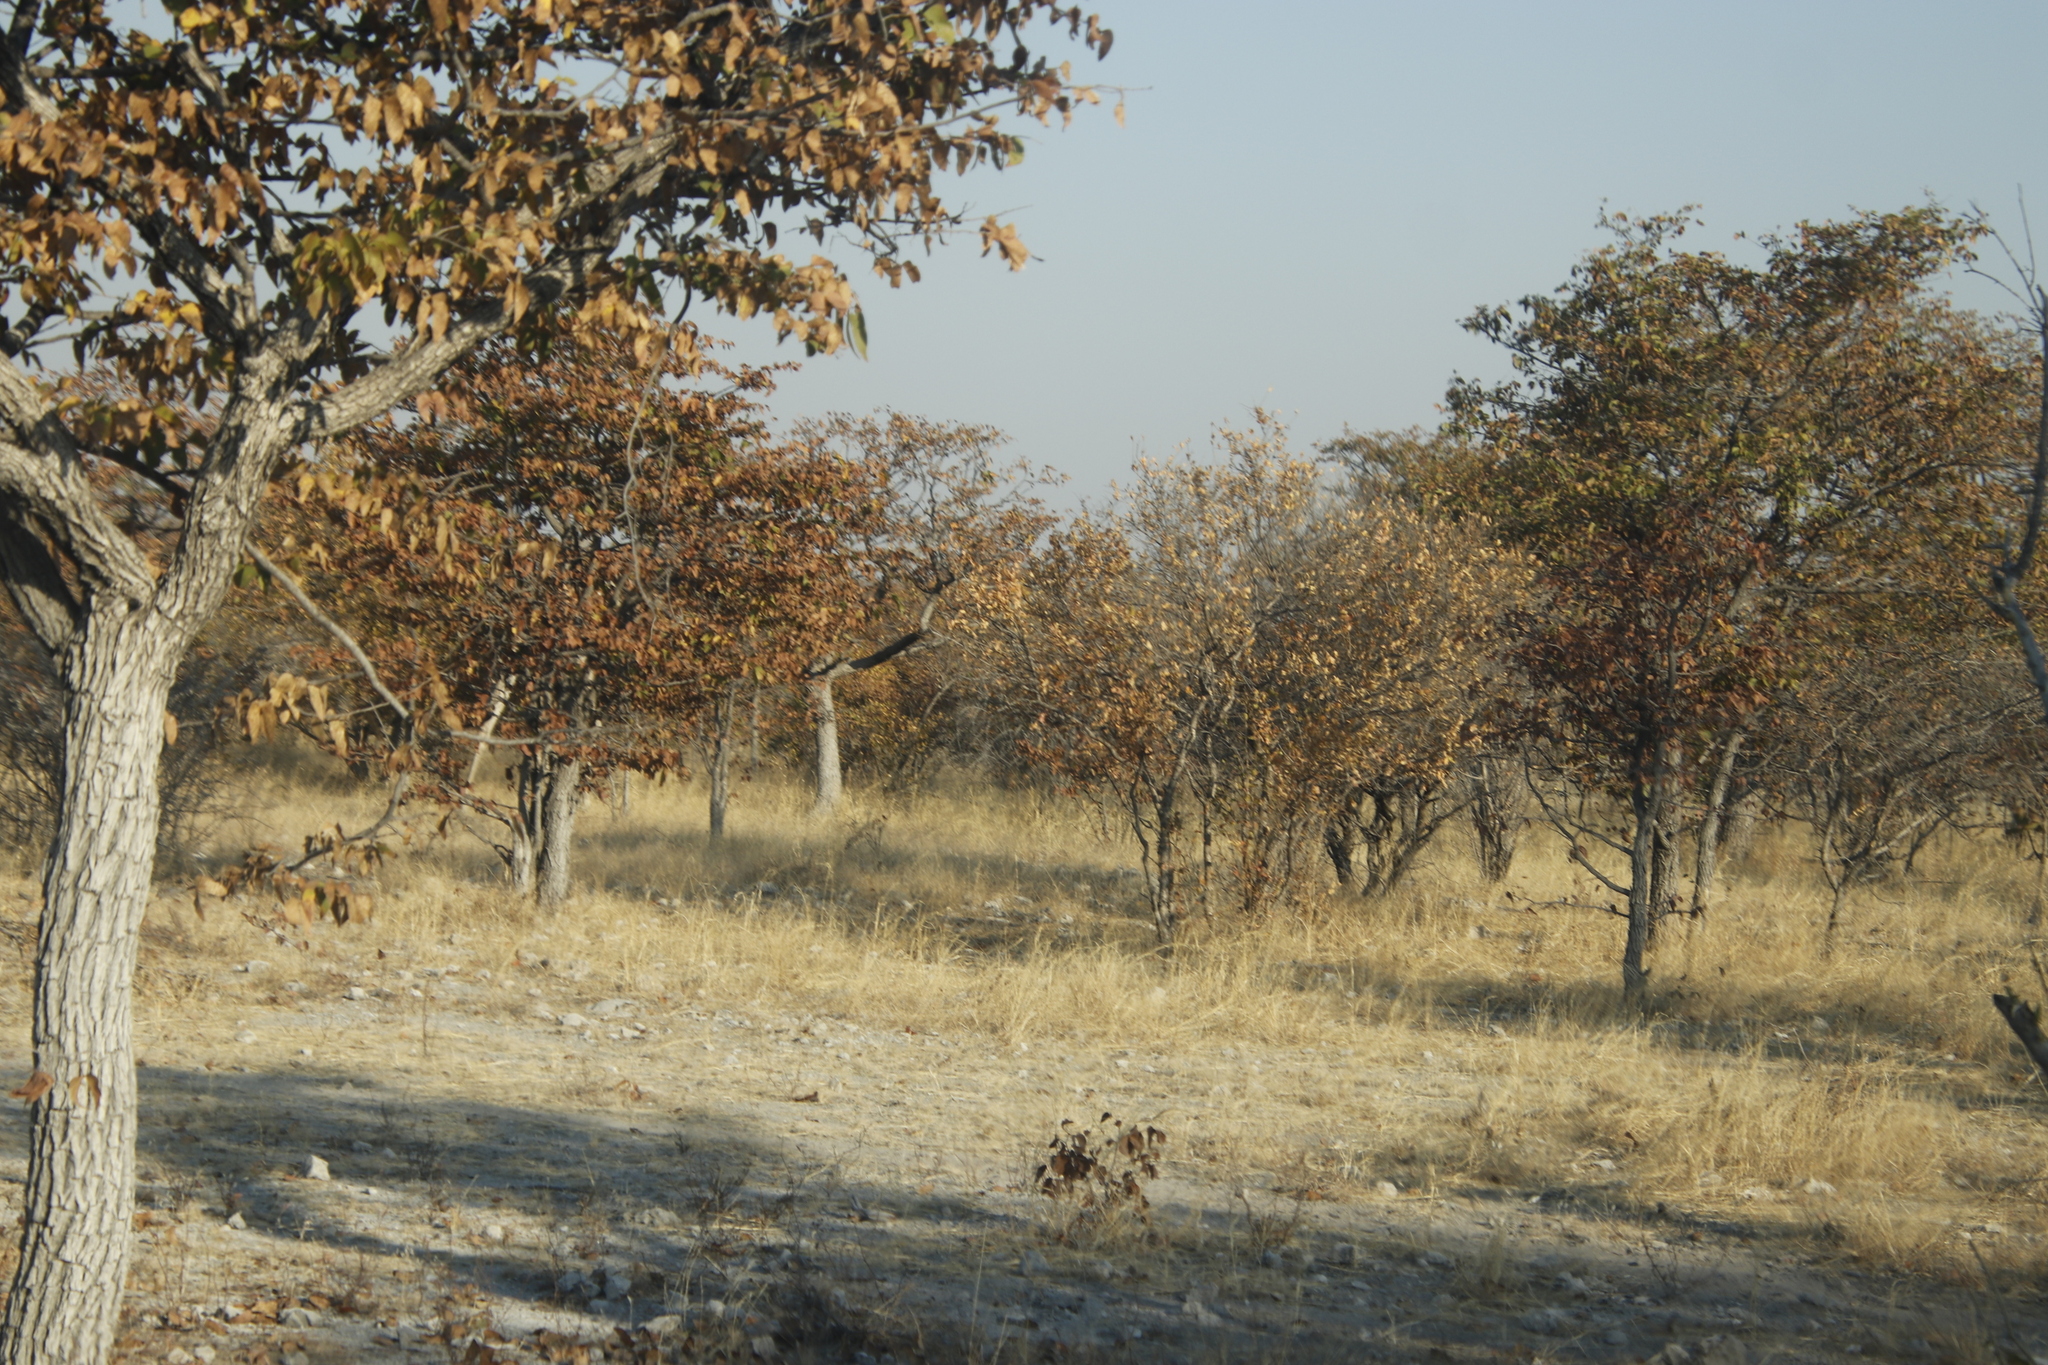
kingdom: Plantae
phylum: Tracheophyta
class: Magnoliopsida
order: Fabales
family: Fabaceae
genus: Colophospermum
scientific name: Colophospermum mopane
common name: Mopane
